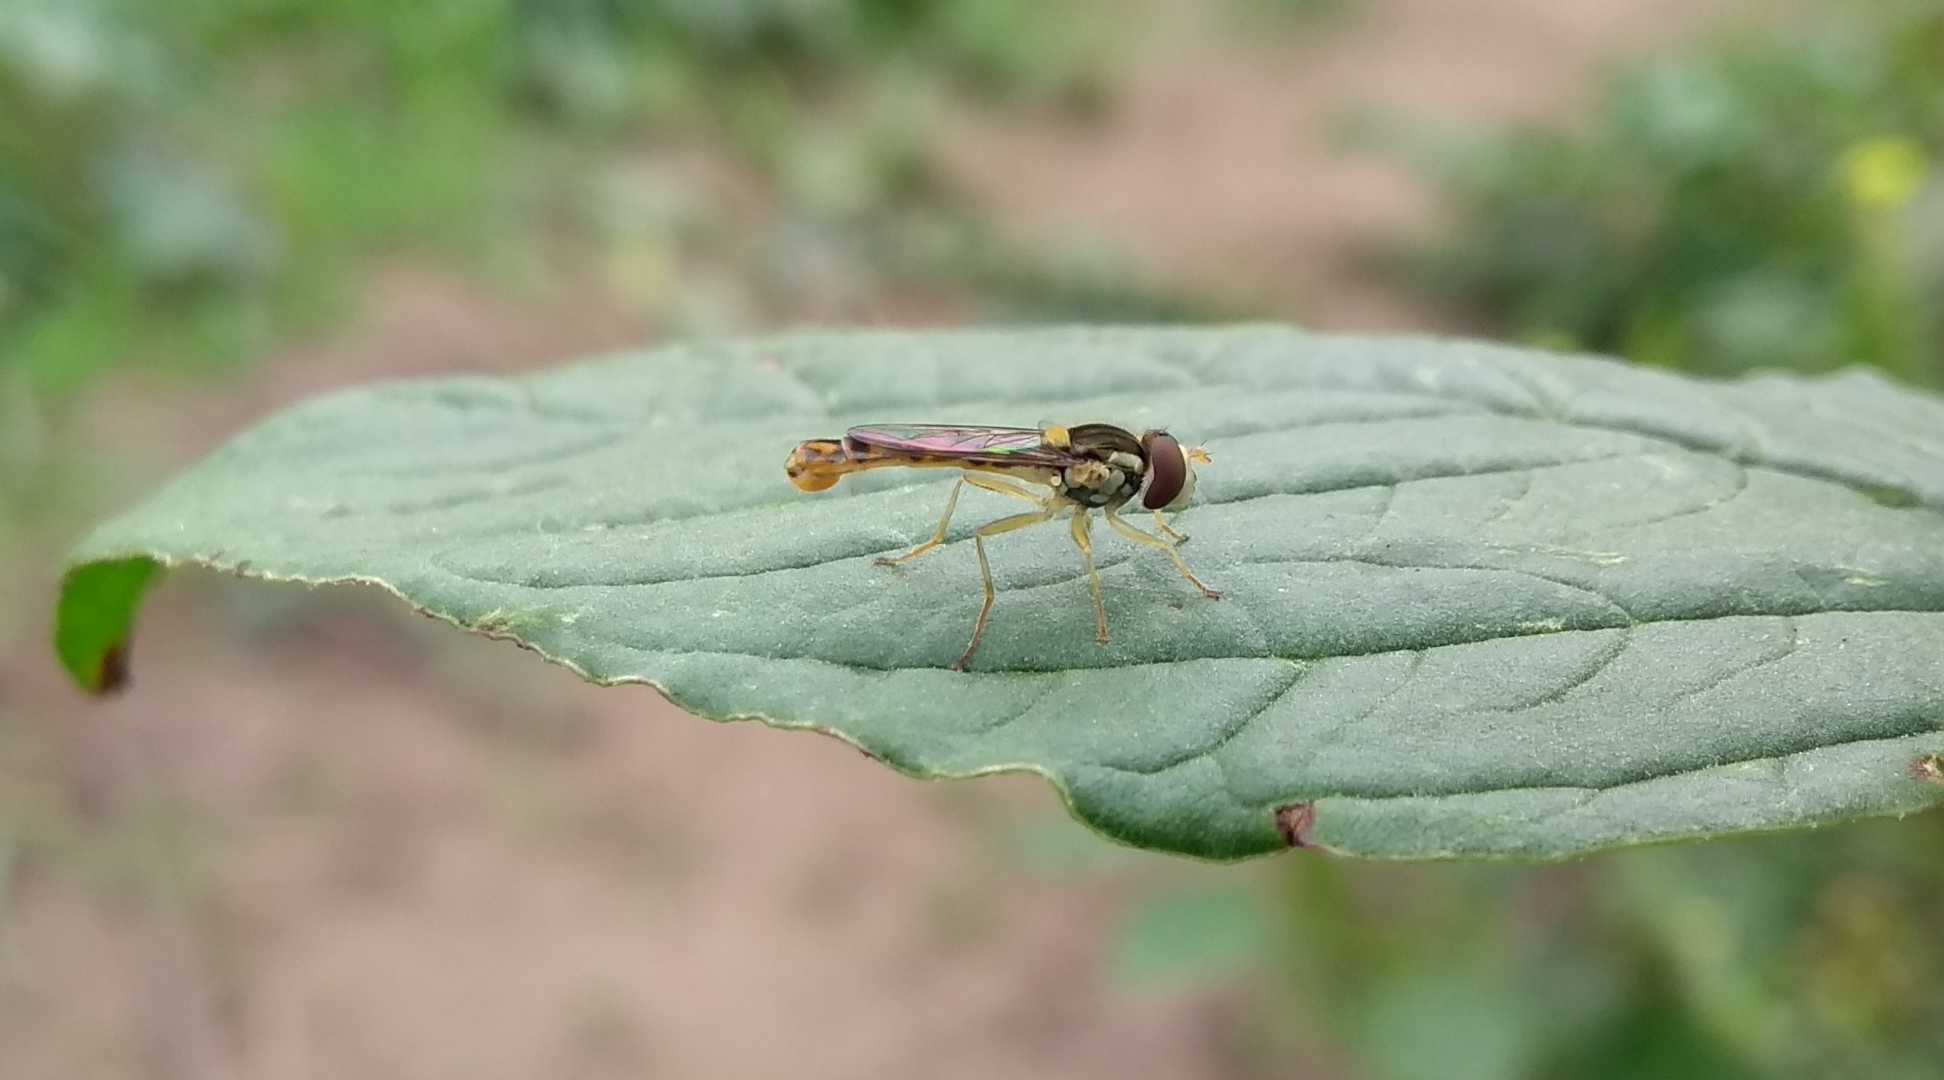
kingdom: Animalia
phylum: Arthropoda
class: Insecta
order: Diptera
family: Syrphidae
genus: Sphaerophoria
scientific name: Sphaerophoria scripta
